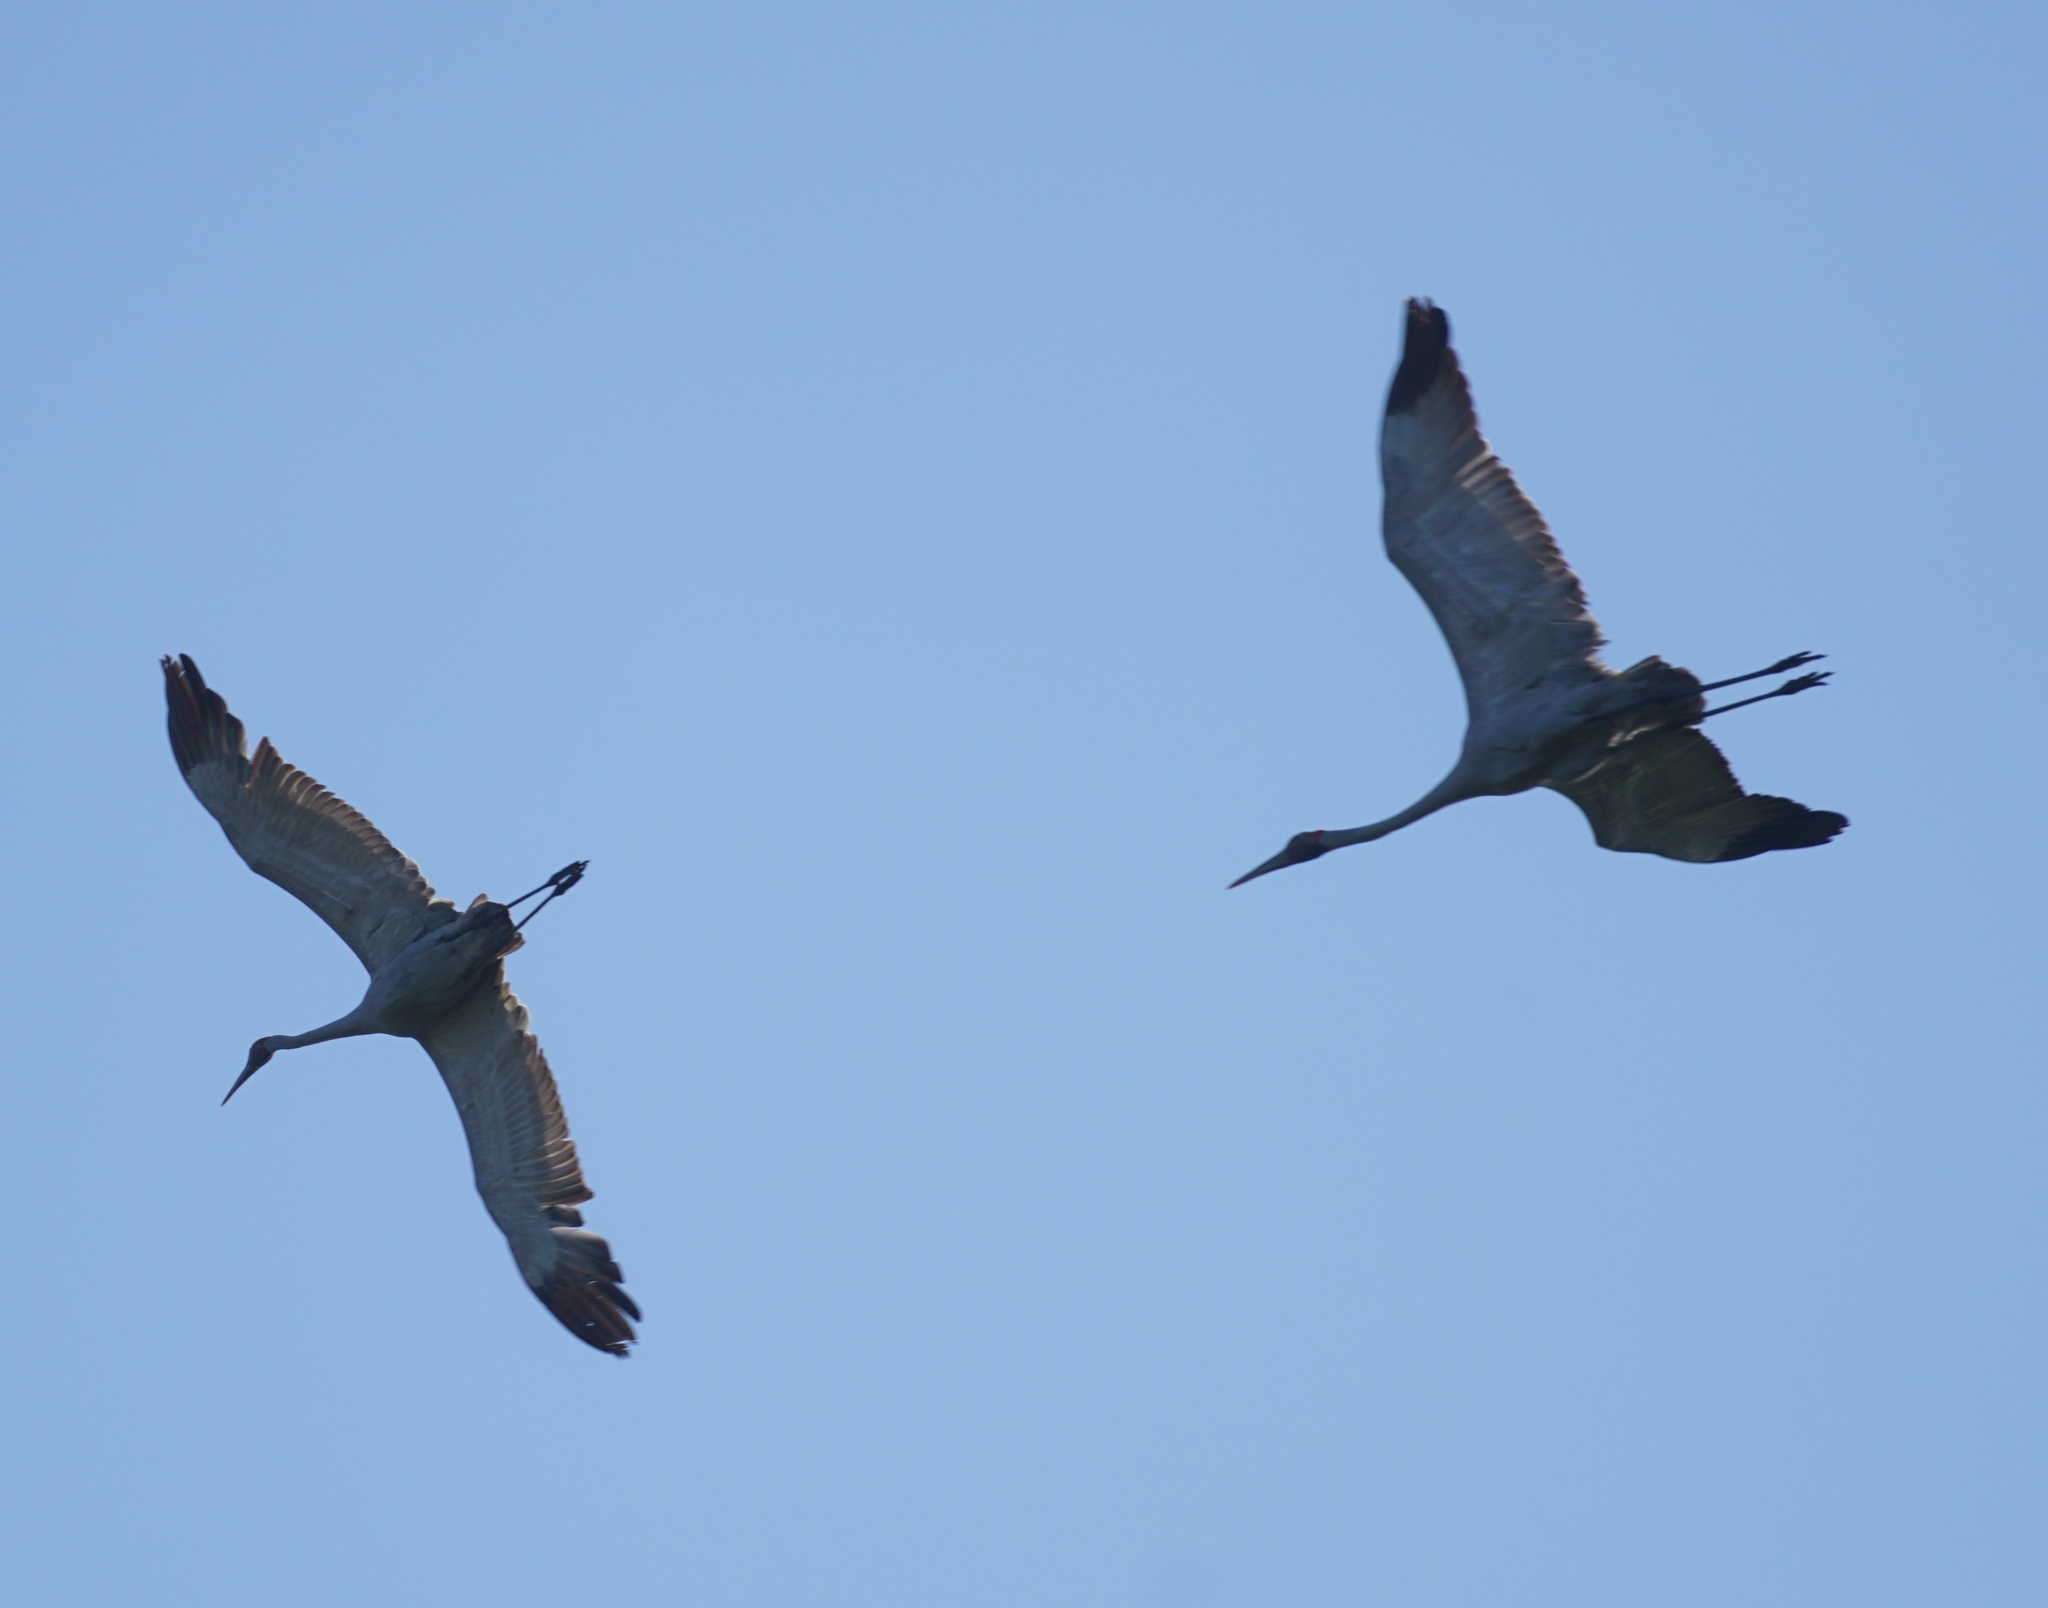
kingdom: Animalia
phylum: Chordata
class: Aves
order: Gruiformes
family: Gruidae
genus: Grus
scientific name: Grus rubicunda
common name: Brolga
